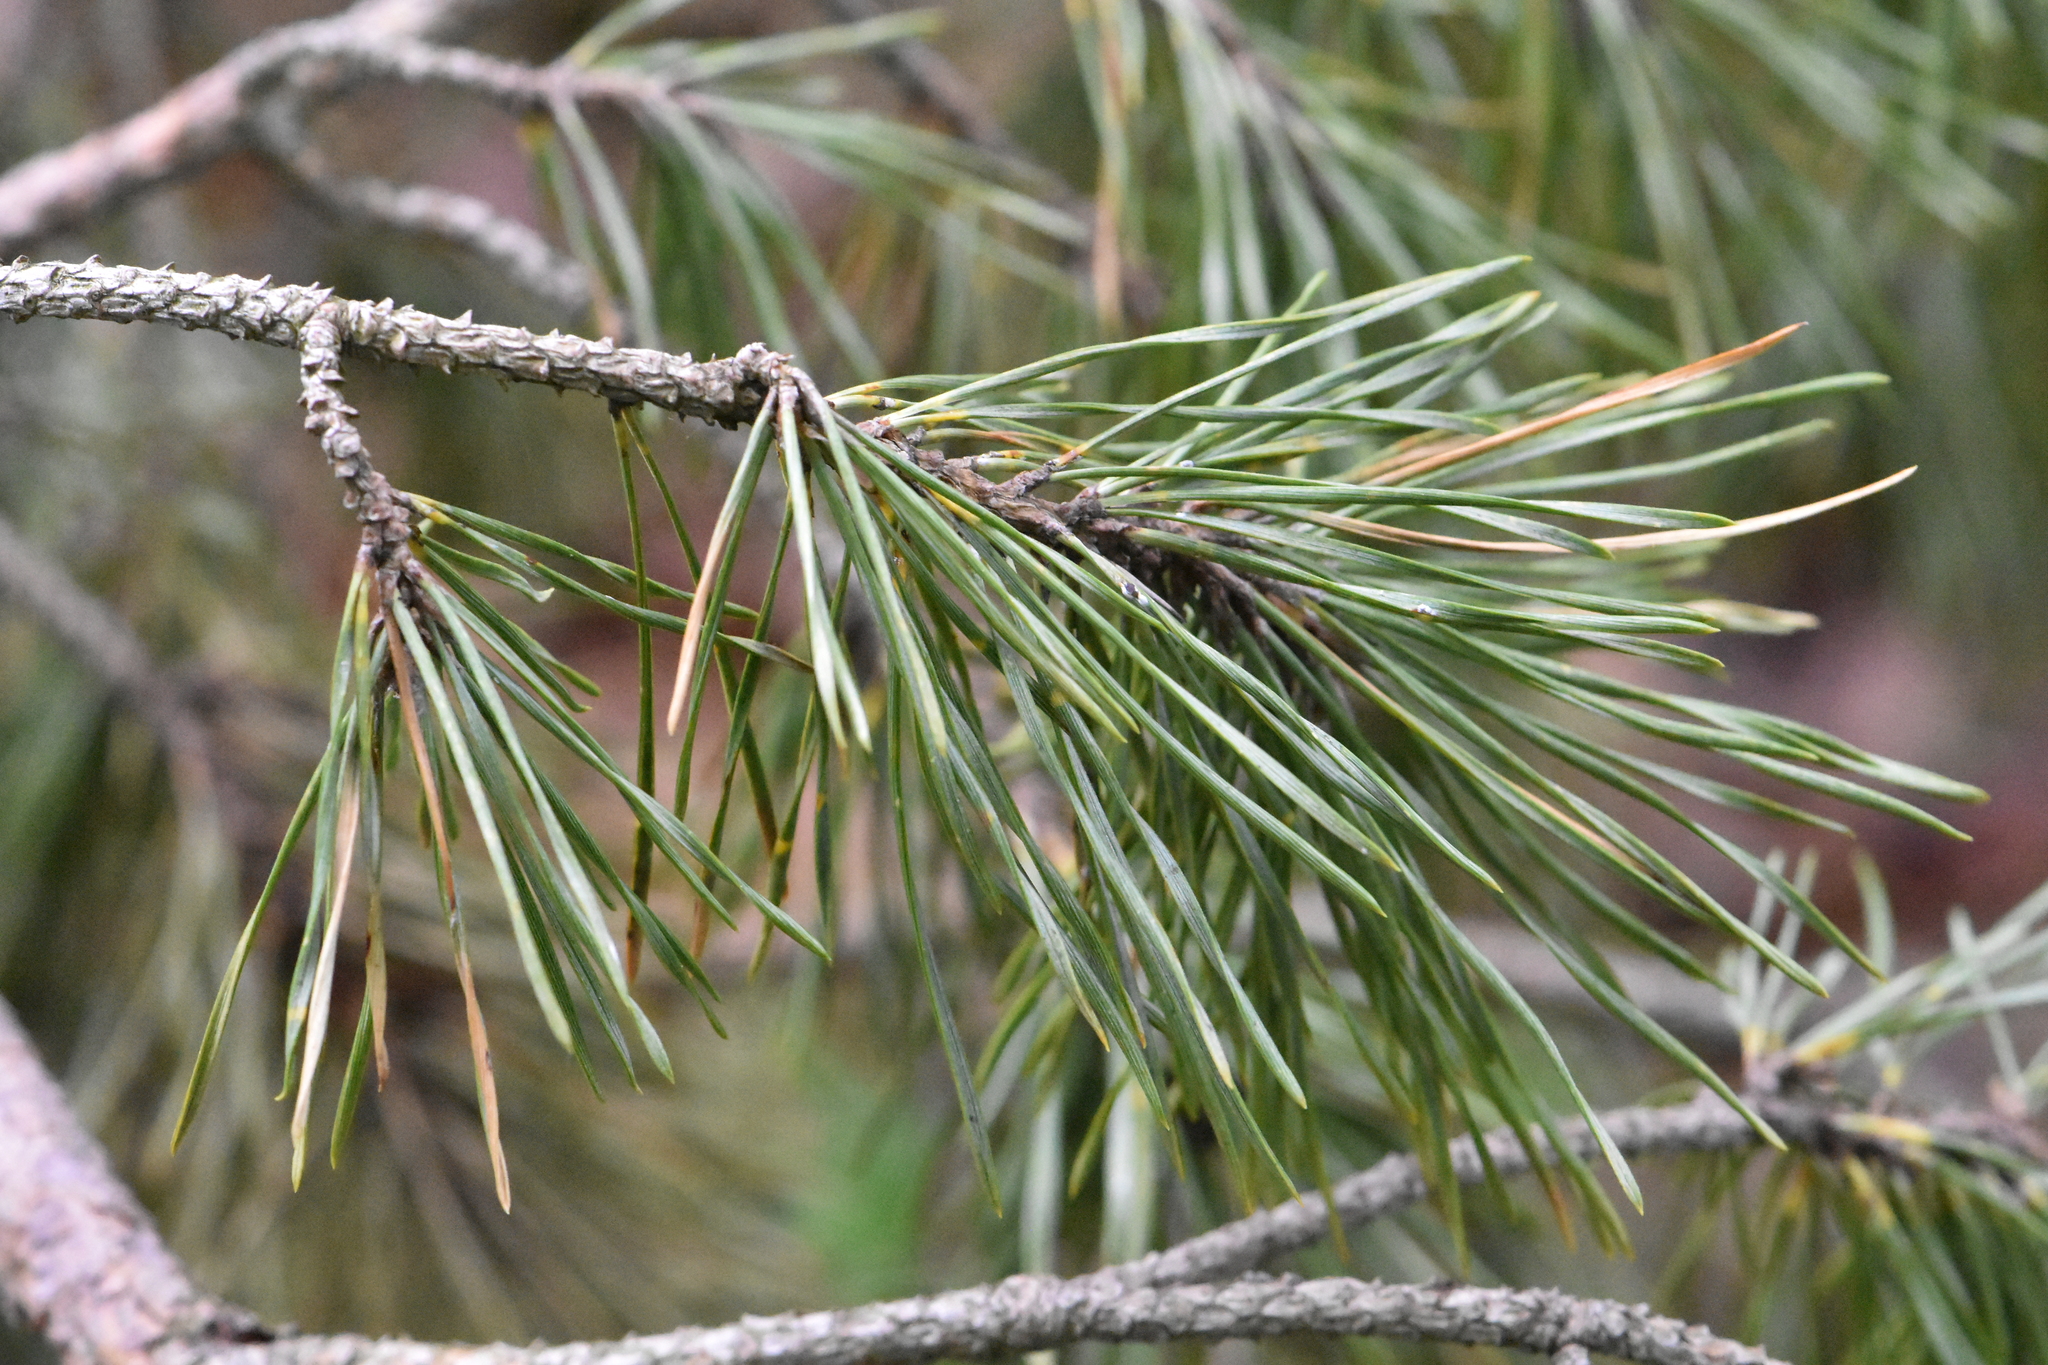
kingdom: Plantae
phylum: Tracheophyta
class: Pinopsida
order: Pinales
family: Pinaceae
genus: Pinus
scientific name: Pinus sylvestris
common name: Scots pine
